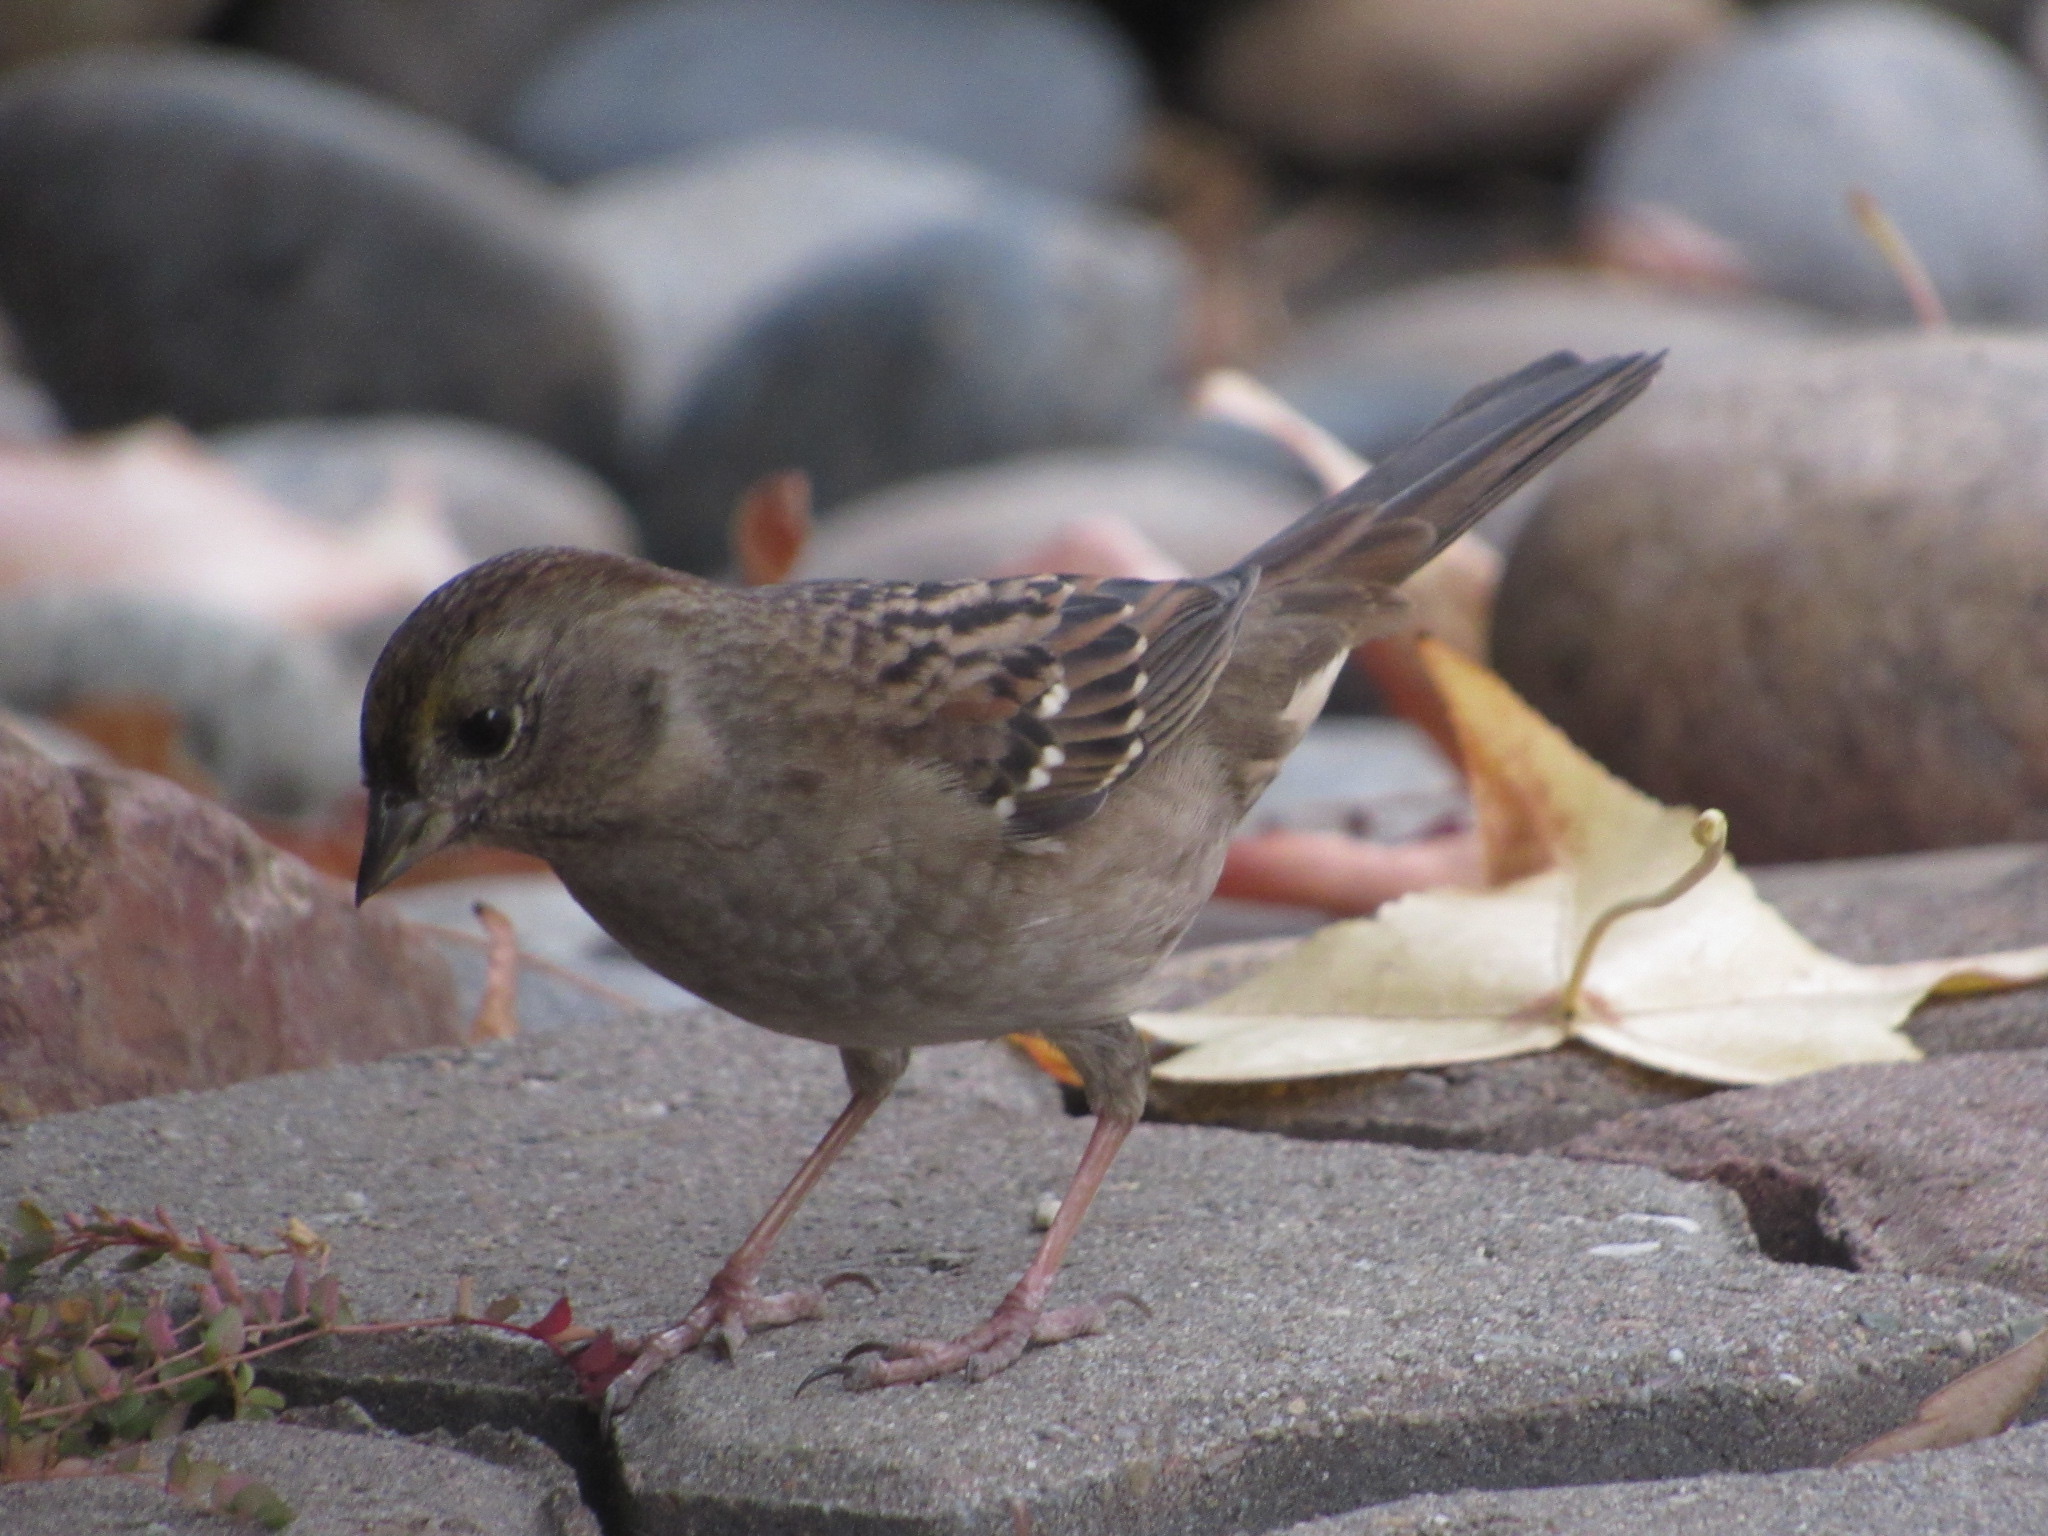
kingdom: Animalia
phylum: Chordata
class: Aves
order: Passeriformes
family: Passerellidae
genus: Zonotrichia
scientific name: Zonotrichia atricapilla
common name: Golden-crowned sparrow
